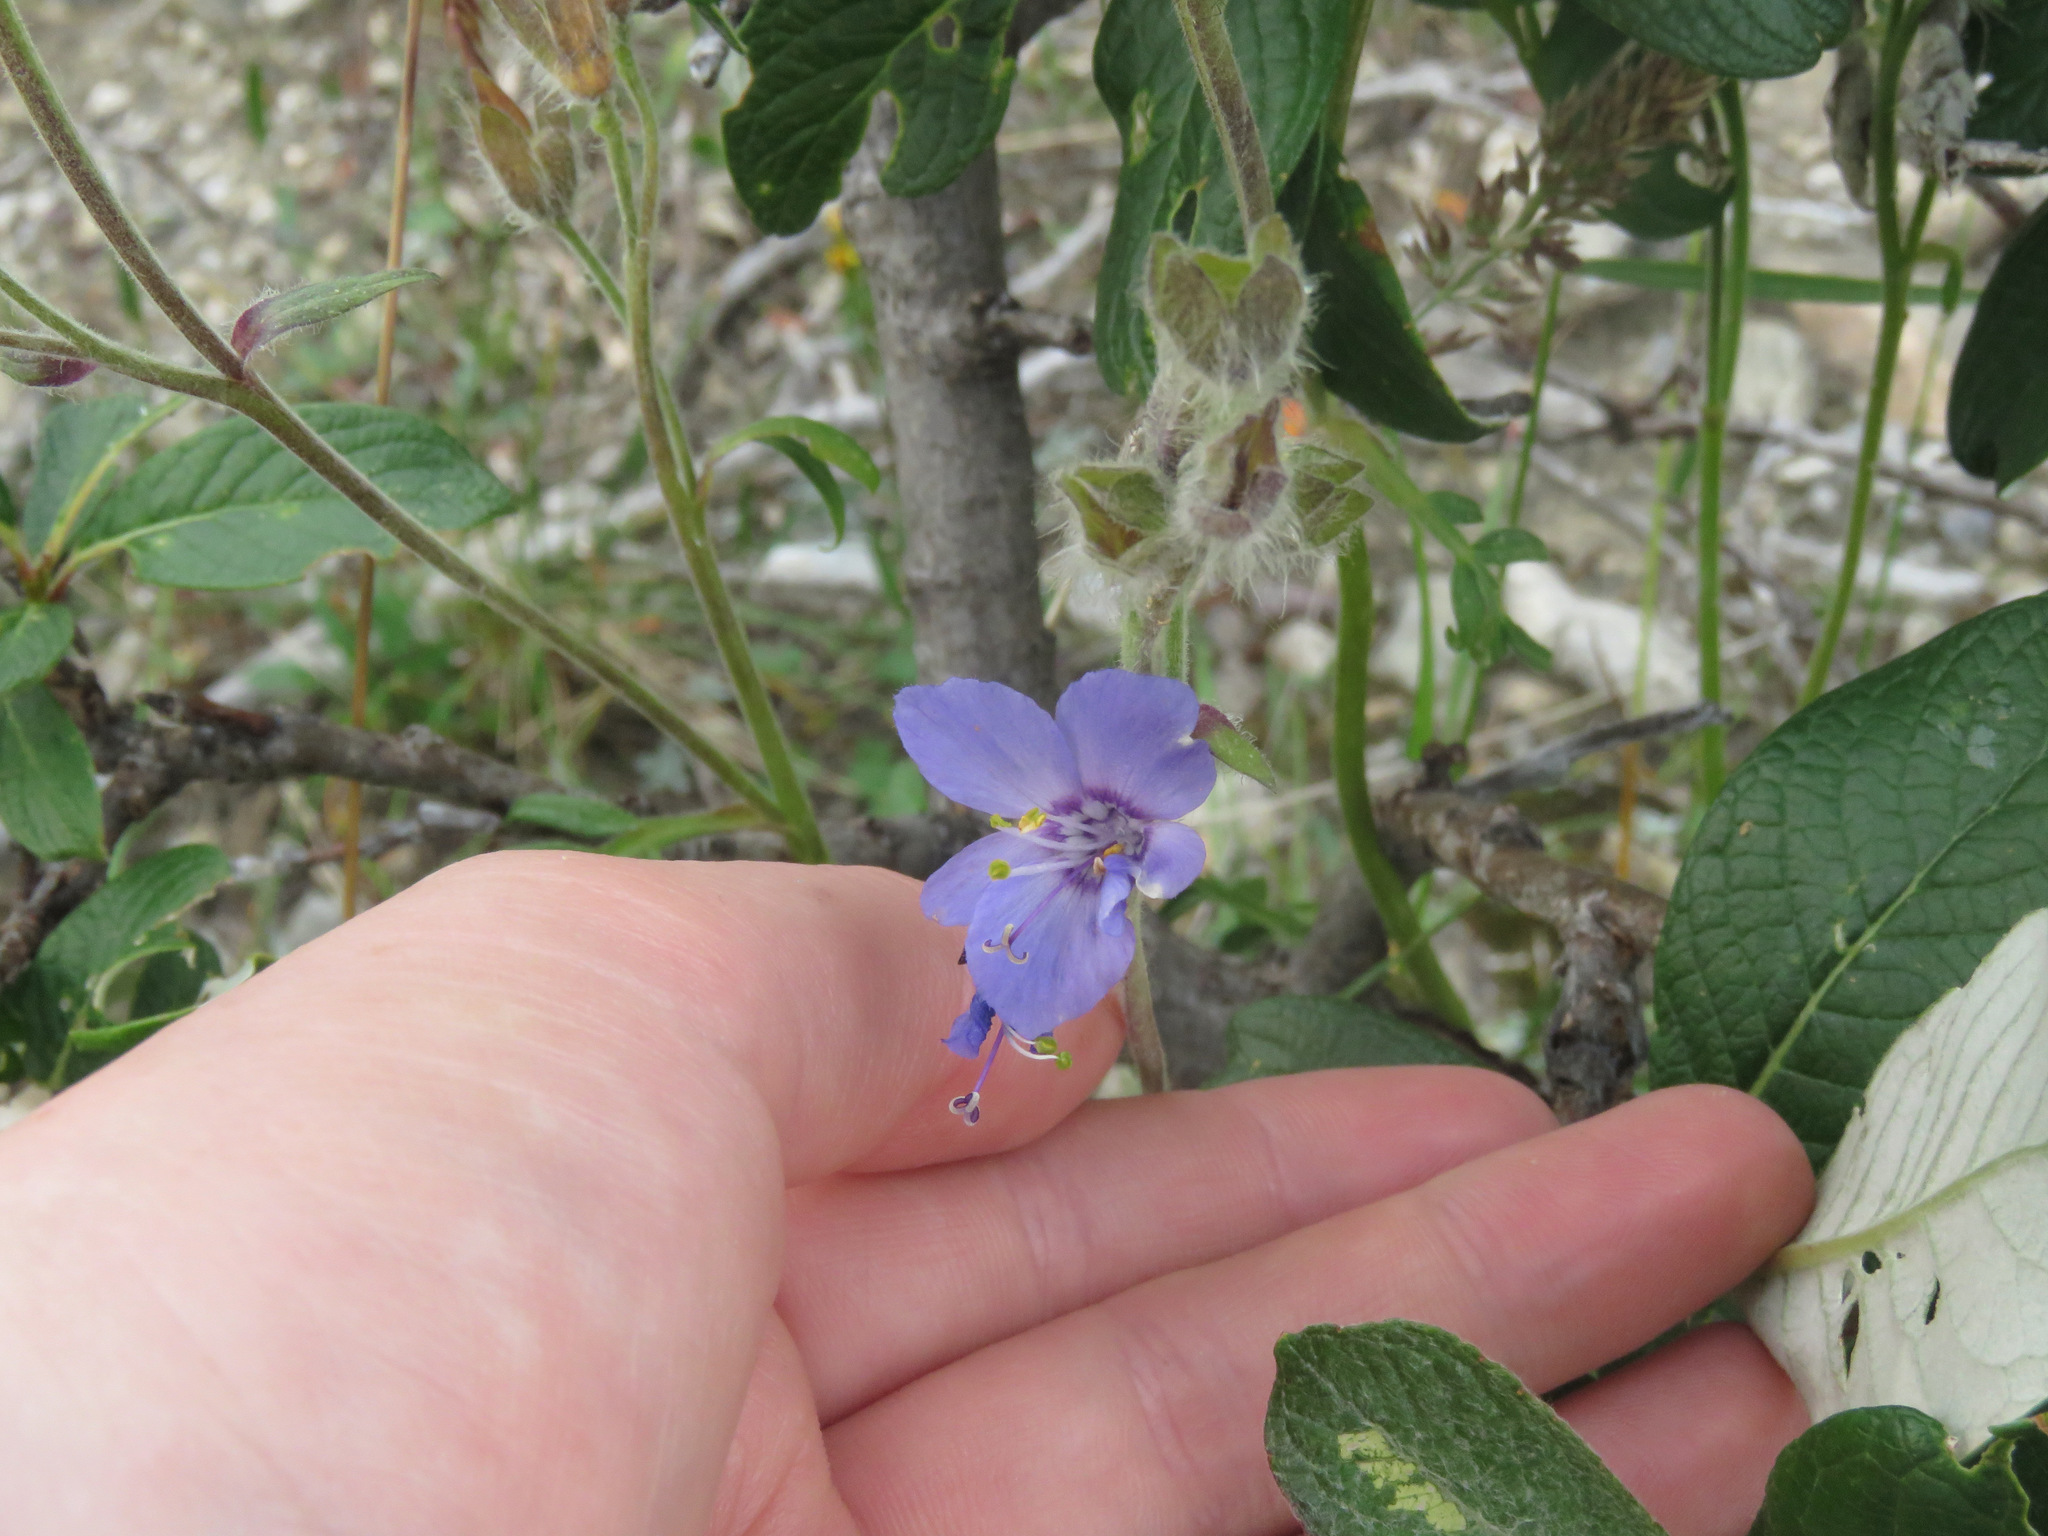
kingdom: Plantae
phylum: Tracheophyta
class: Magnoliopsida
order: Ericales
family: Polemoniaceae
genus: Polemonium
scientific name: Polemonium acutiflorum
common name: Tall jacob's-ladder
